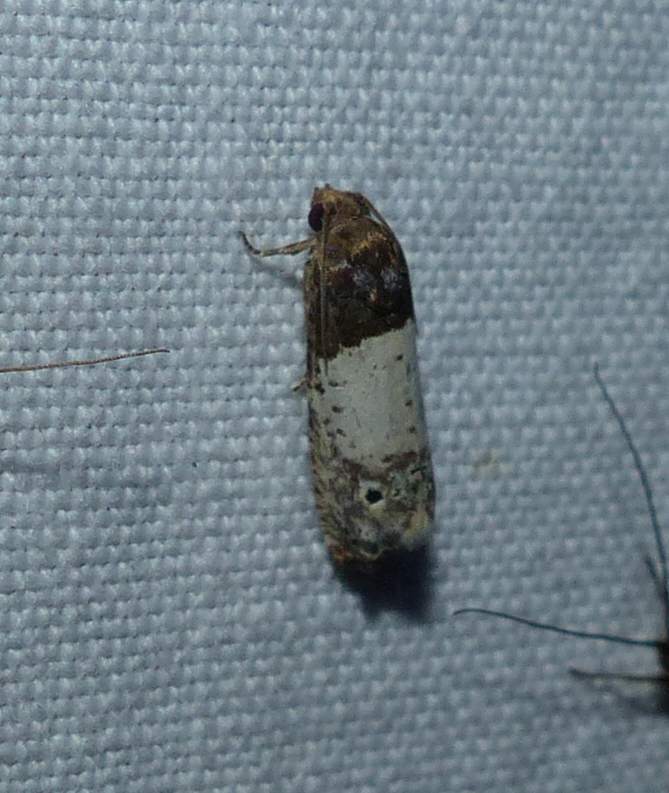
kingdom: Animalia
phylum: Arthropoda
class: Insecta
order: Lepidoptera
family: Tortricidae
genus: Epiblema
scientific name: Epiblema scudderiana
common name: Goldenrod gall moth
